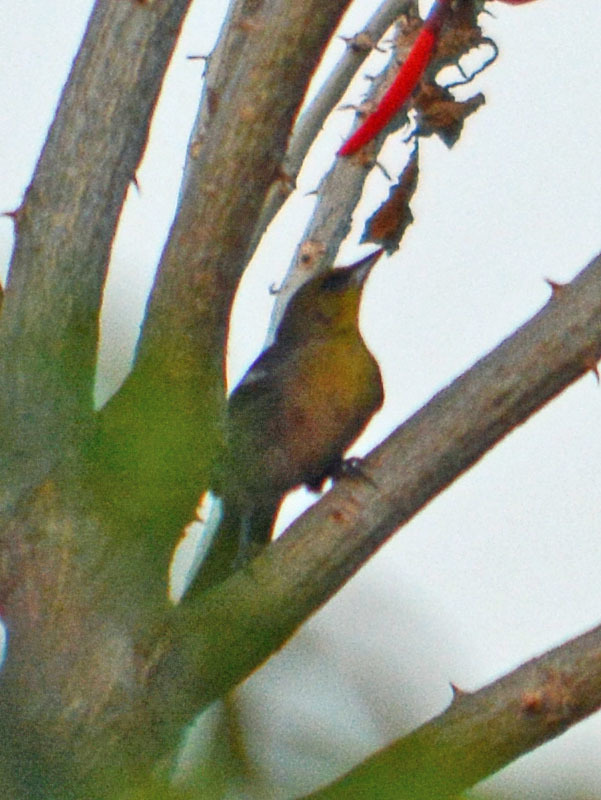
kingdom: Animalia
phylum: Chordata
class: Aves
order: Passeriformes
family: Icteridae
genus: Icterus
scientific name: Icterus abeillei
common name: Black-backed oriole
